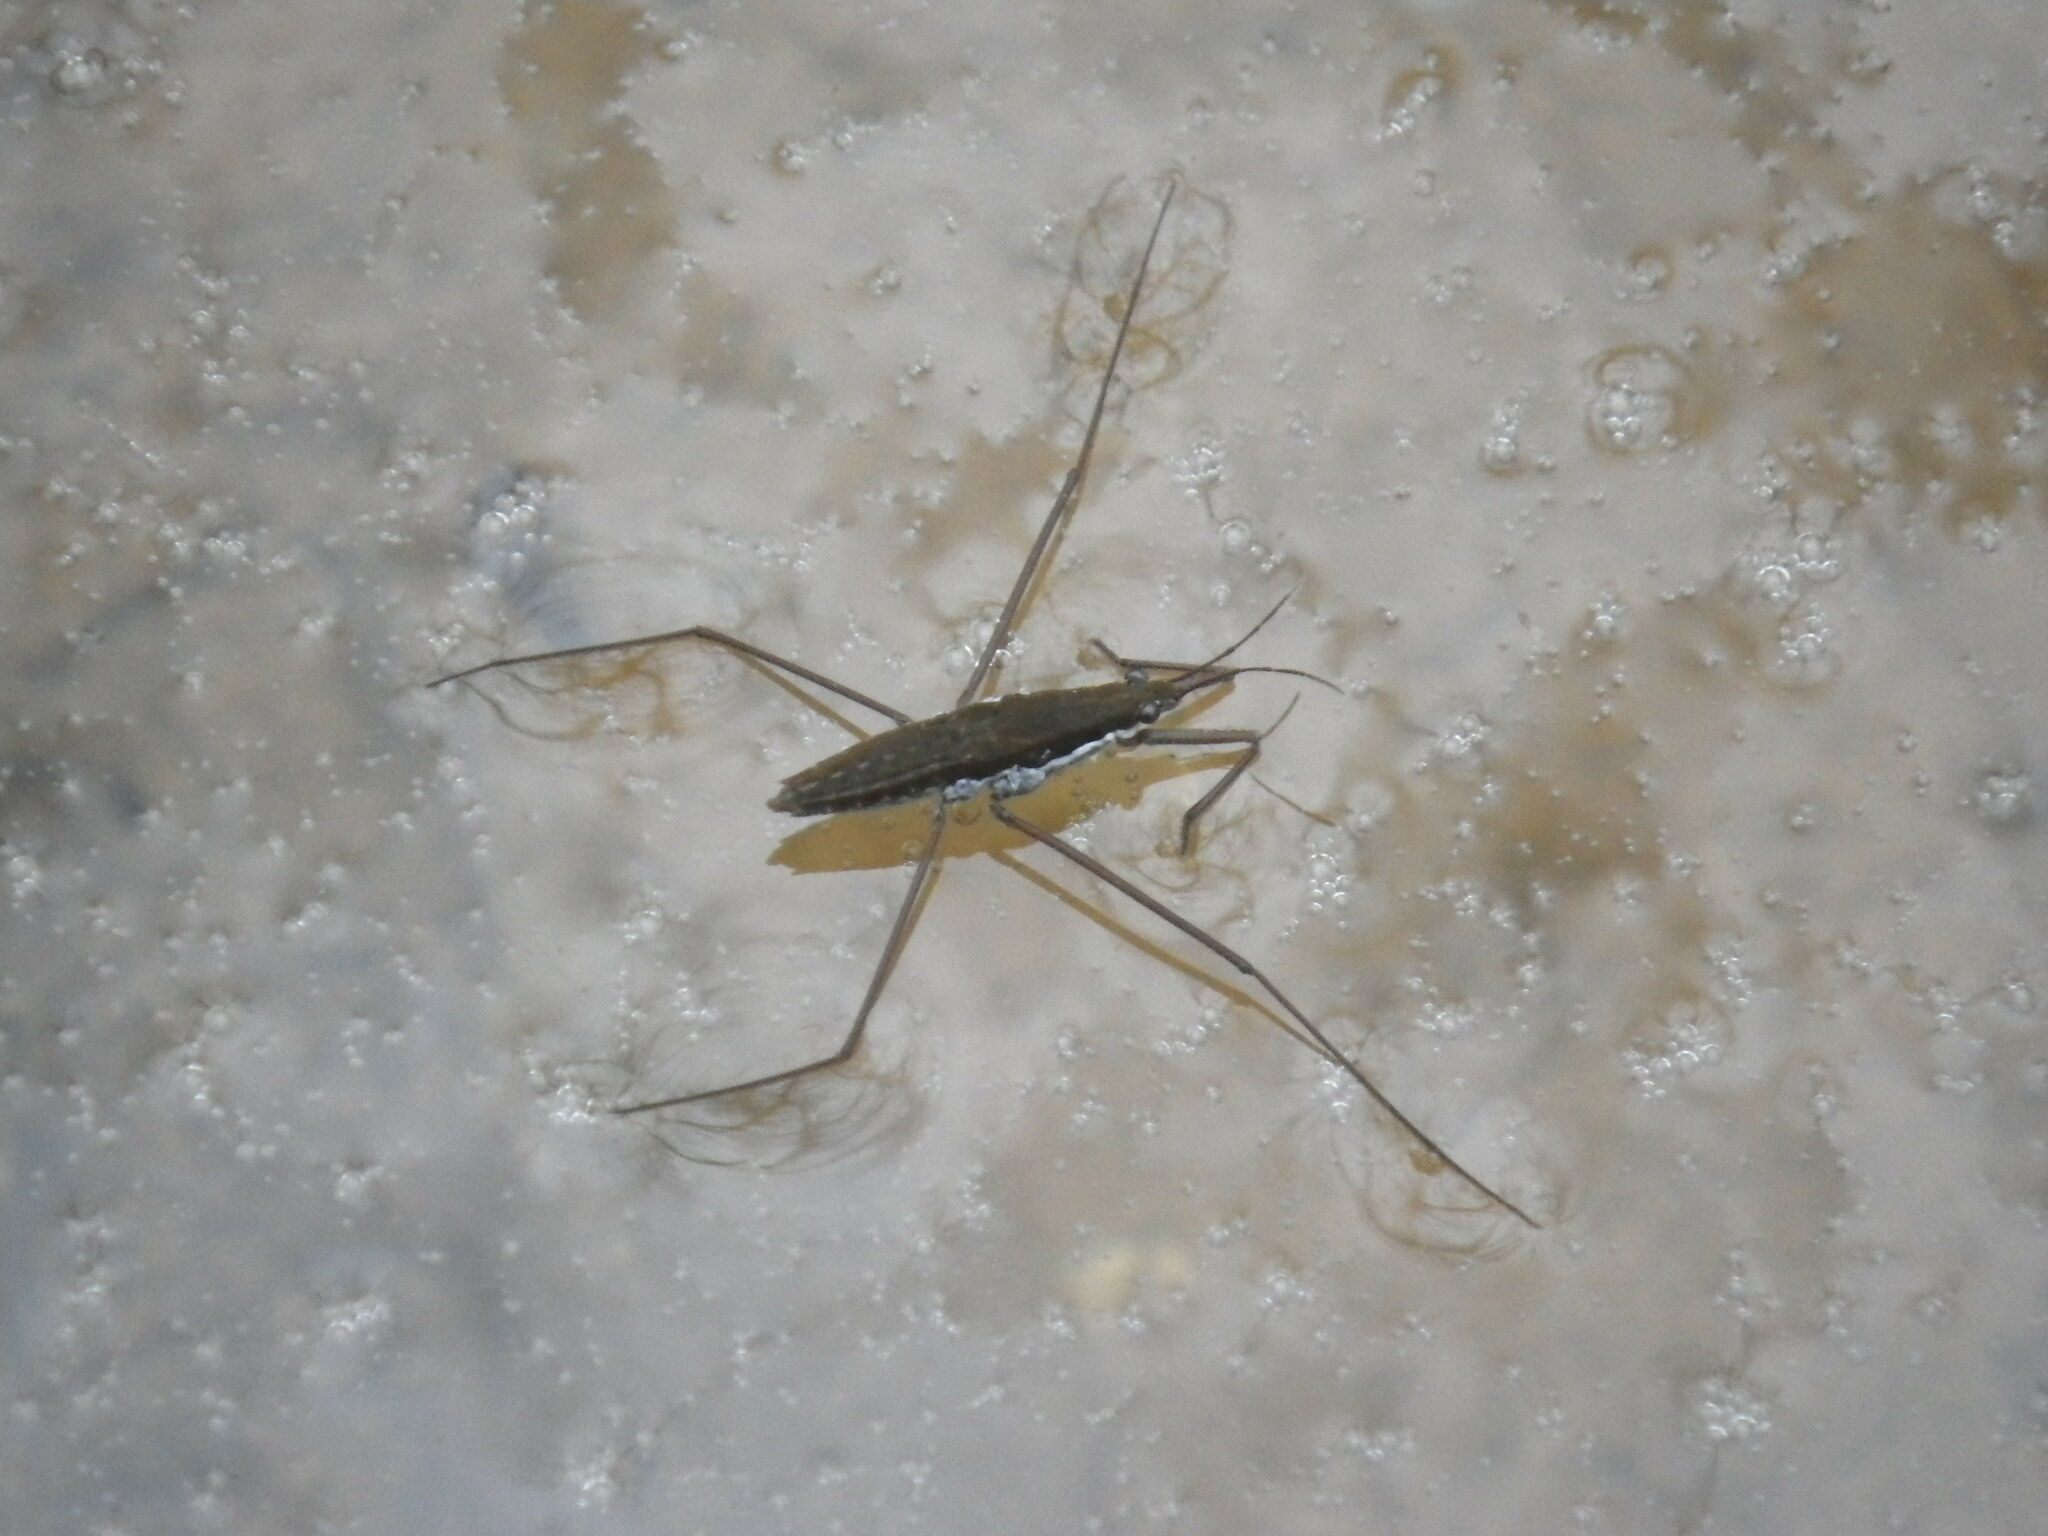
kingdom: Animalia
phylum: Arthropoda
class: Insecta
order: Hemiptera
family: Gerridae
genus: Aquarius
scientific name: Aquarius
